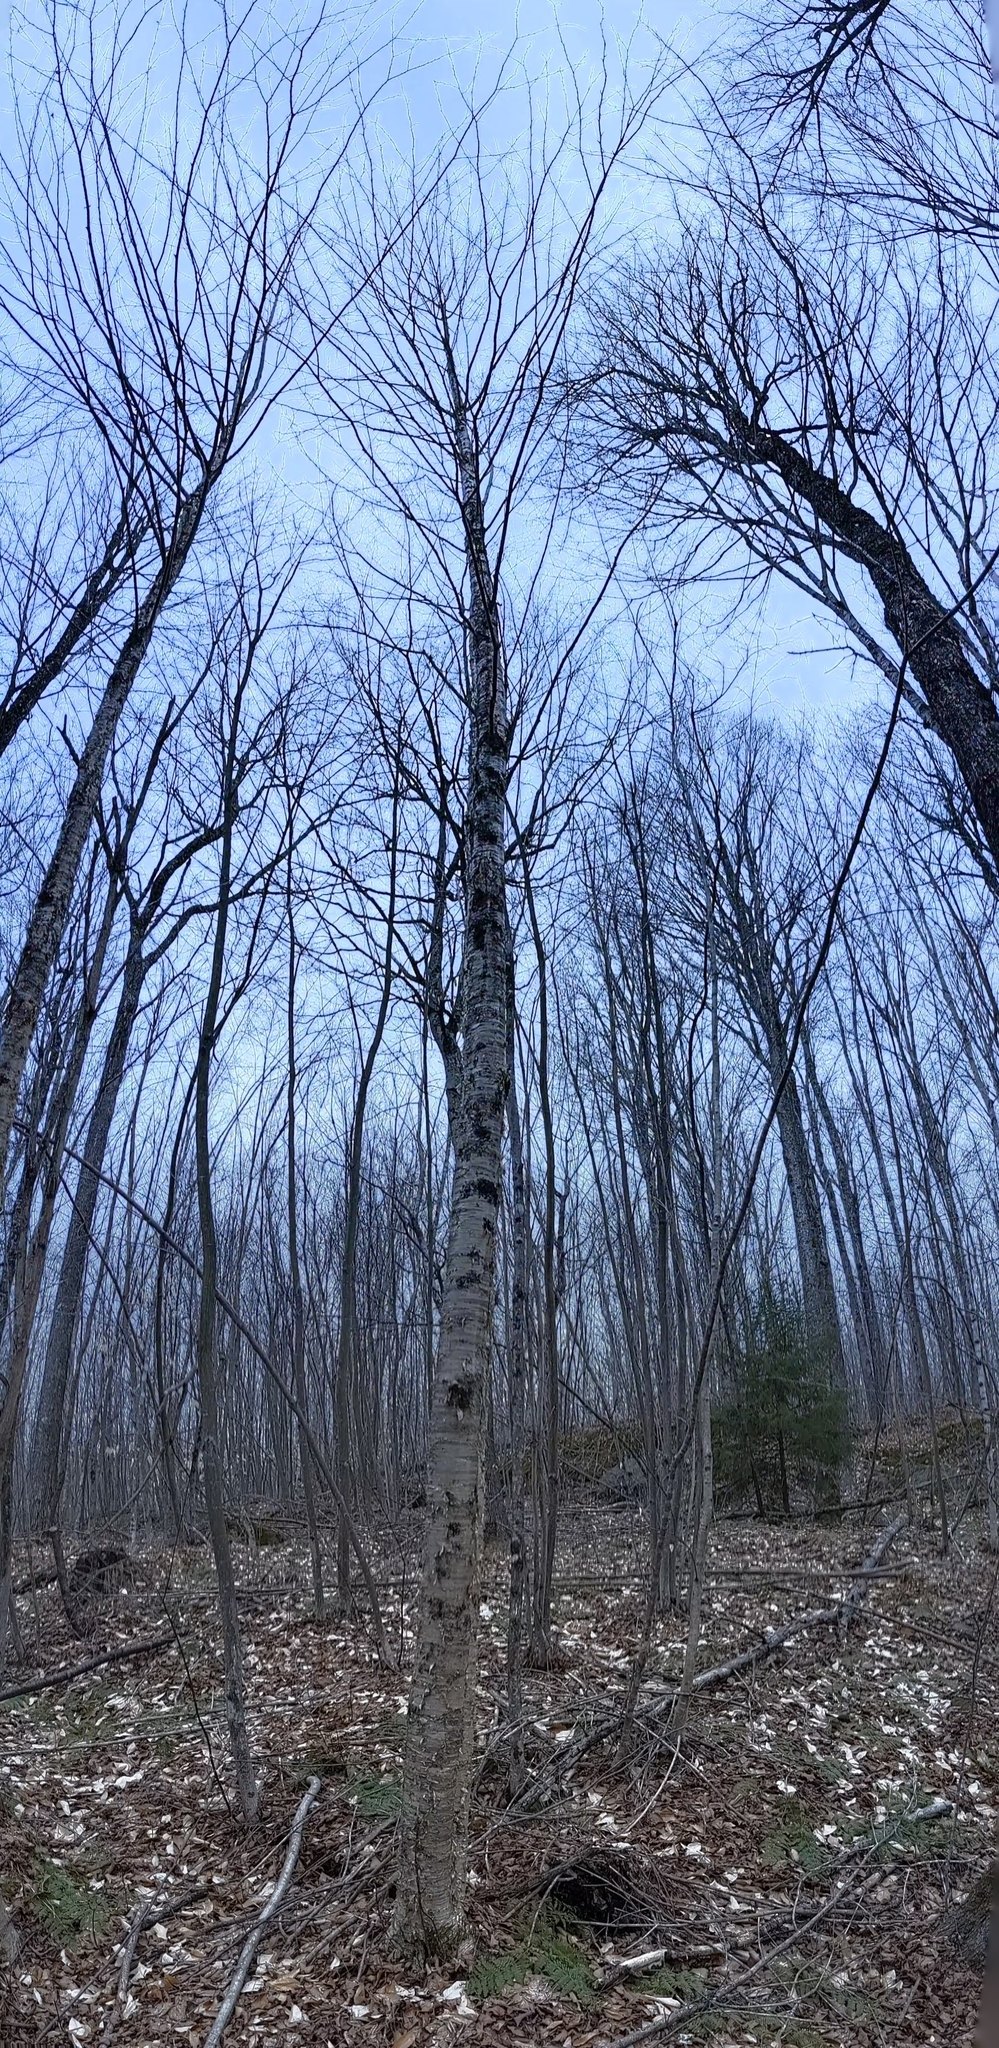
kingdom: Plantae
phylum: Tracheophyta
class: Magnoliopsida
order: Fagales
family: Betulaceae
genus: Betula
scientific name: Betula alleghaniensis
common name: Yellow birch
